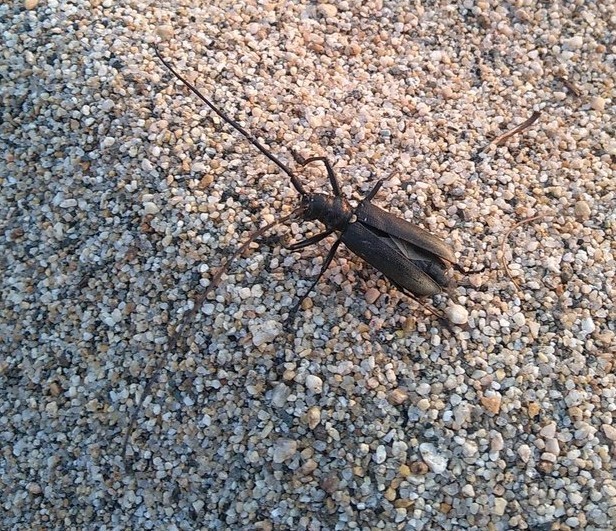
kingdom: Animalia
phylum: Arthropoda
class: Insecta
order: Coleoptera
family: Cerambycidae
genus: Monochamus
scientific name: Monochamus sartor
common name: Pine sawyer
